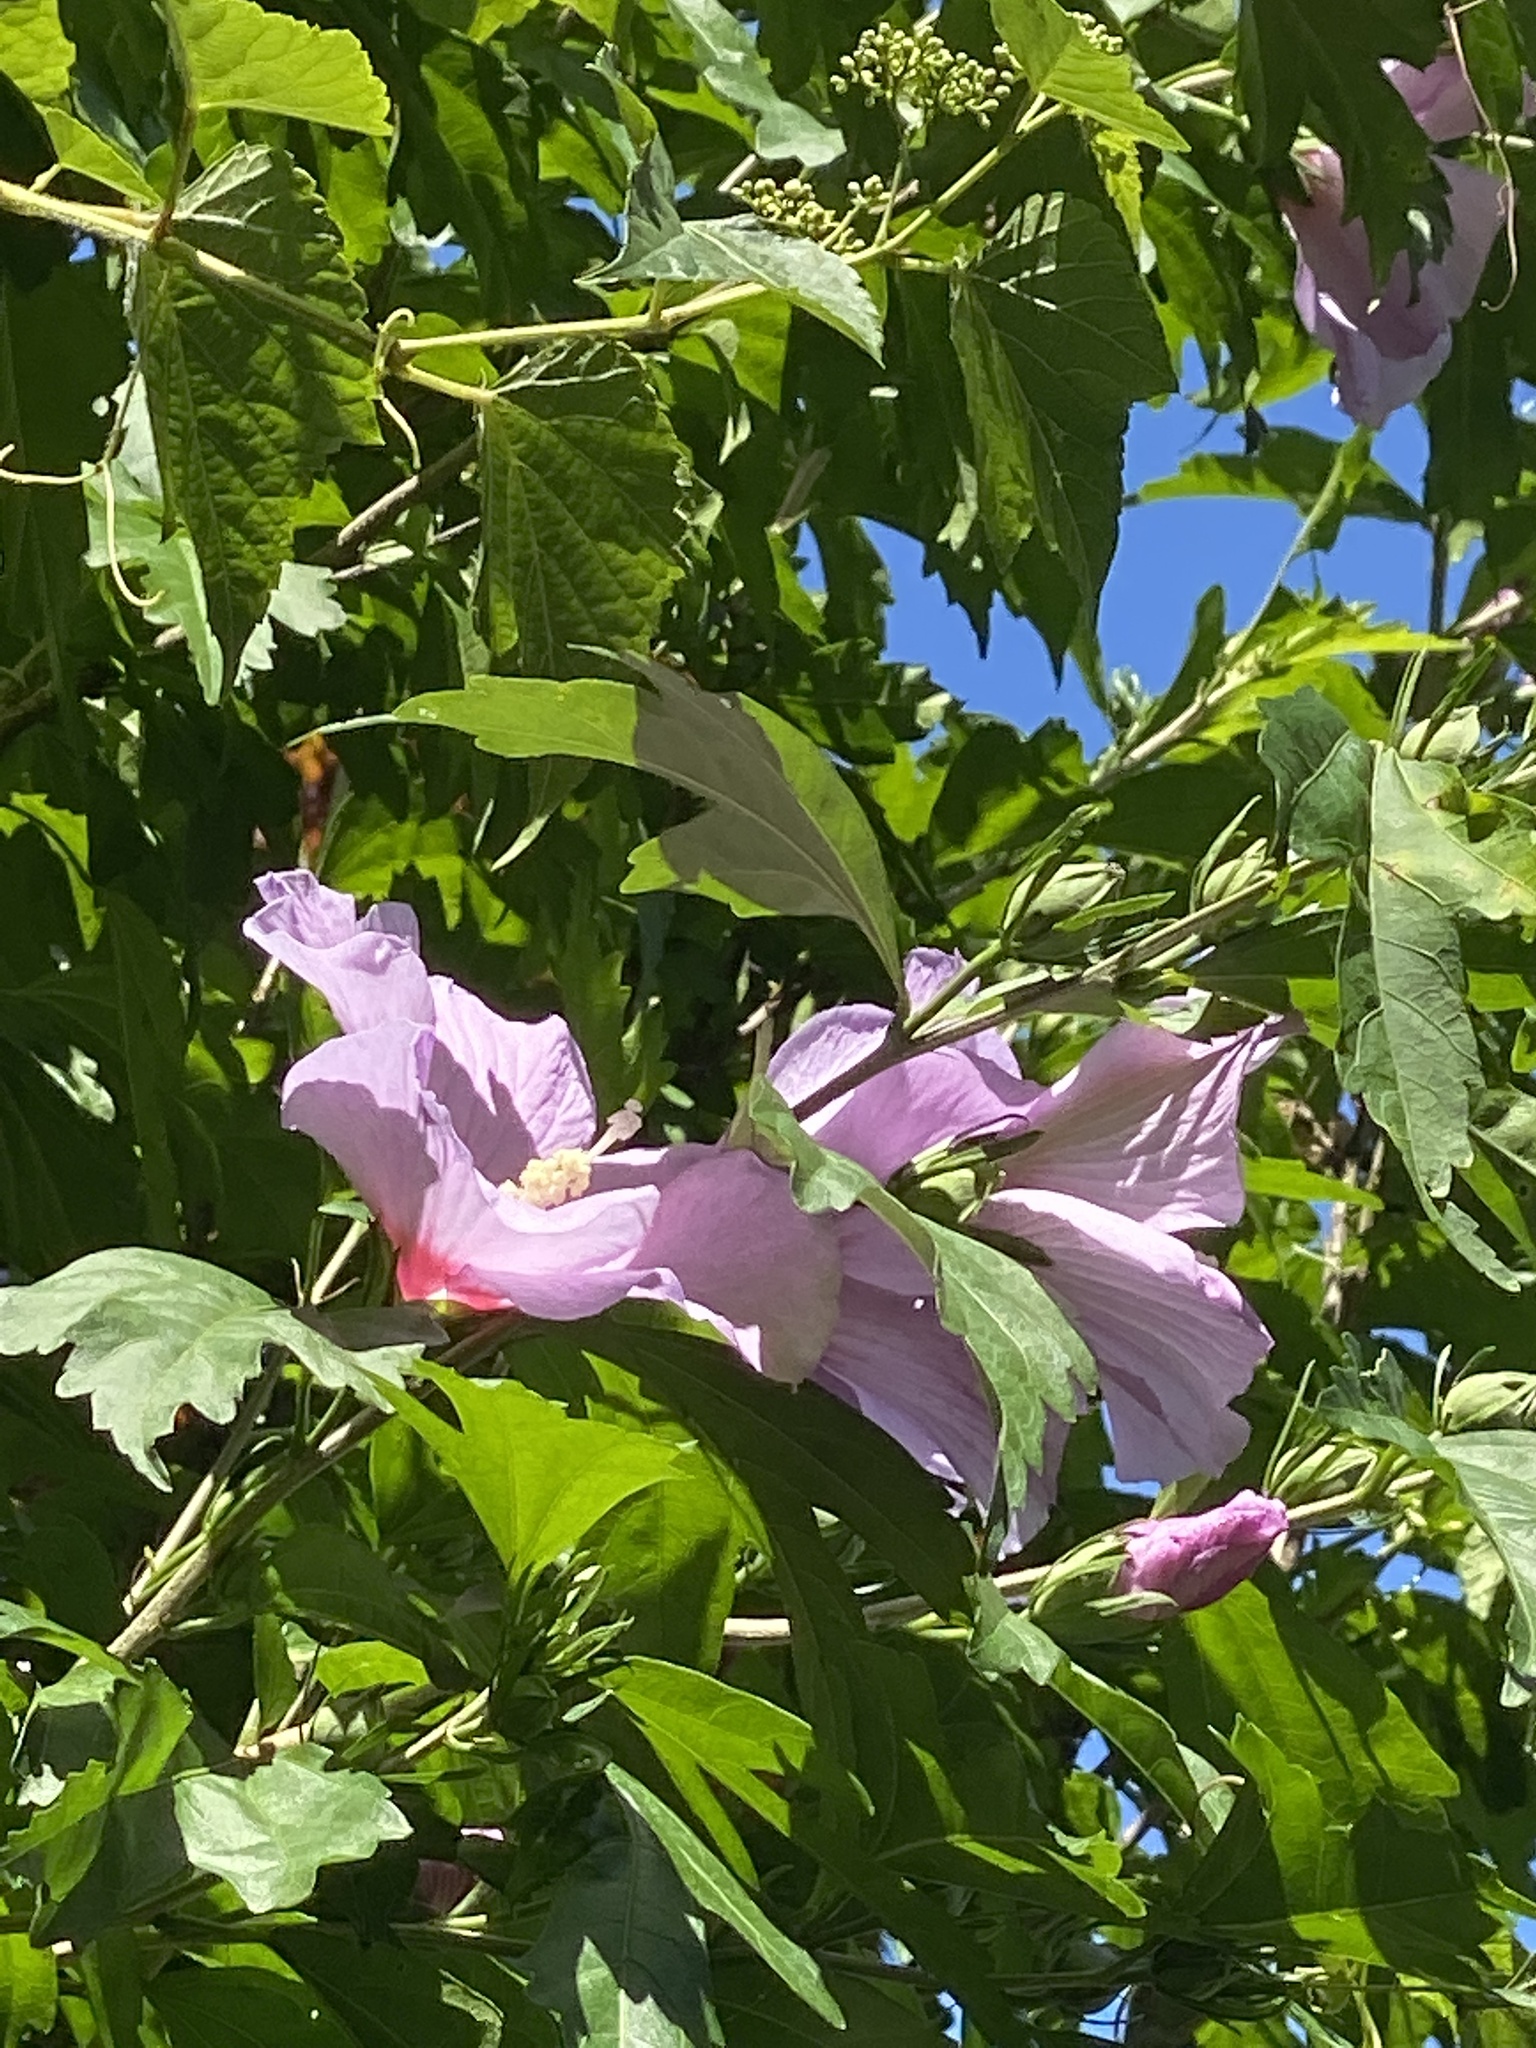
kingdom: Plantae
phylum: Tracheophyta
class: Magnoliopsida
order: Malvales
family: Malvaceae
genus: Hibiscus
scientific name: Hibiscus syriacus
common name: Syrian ketmia
